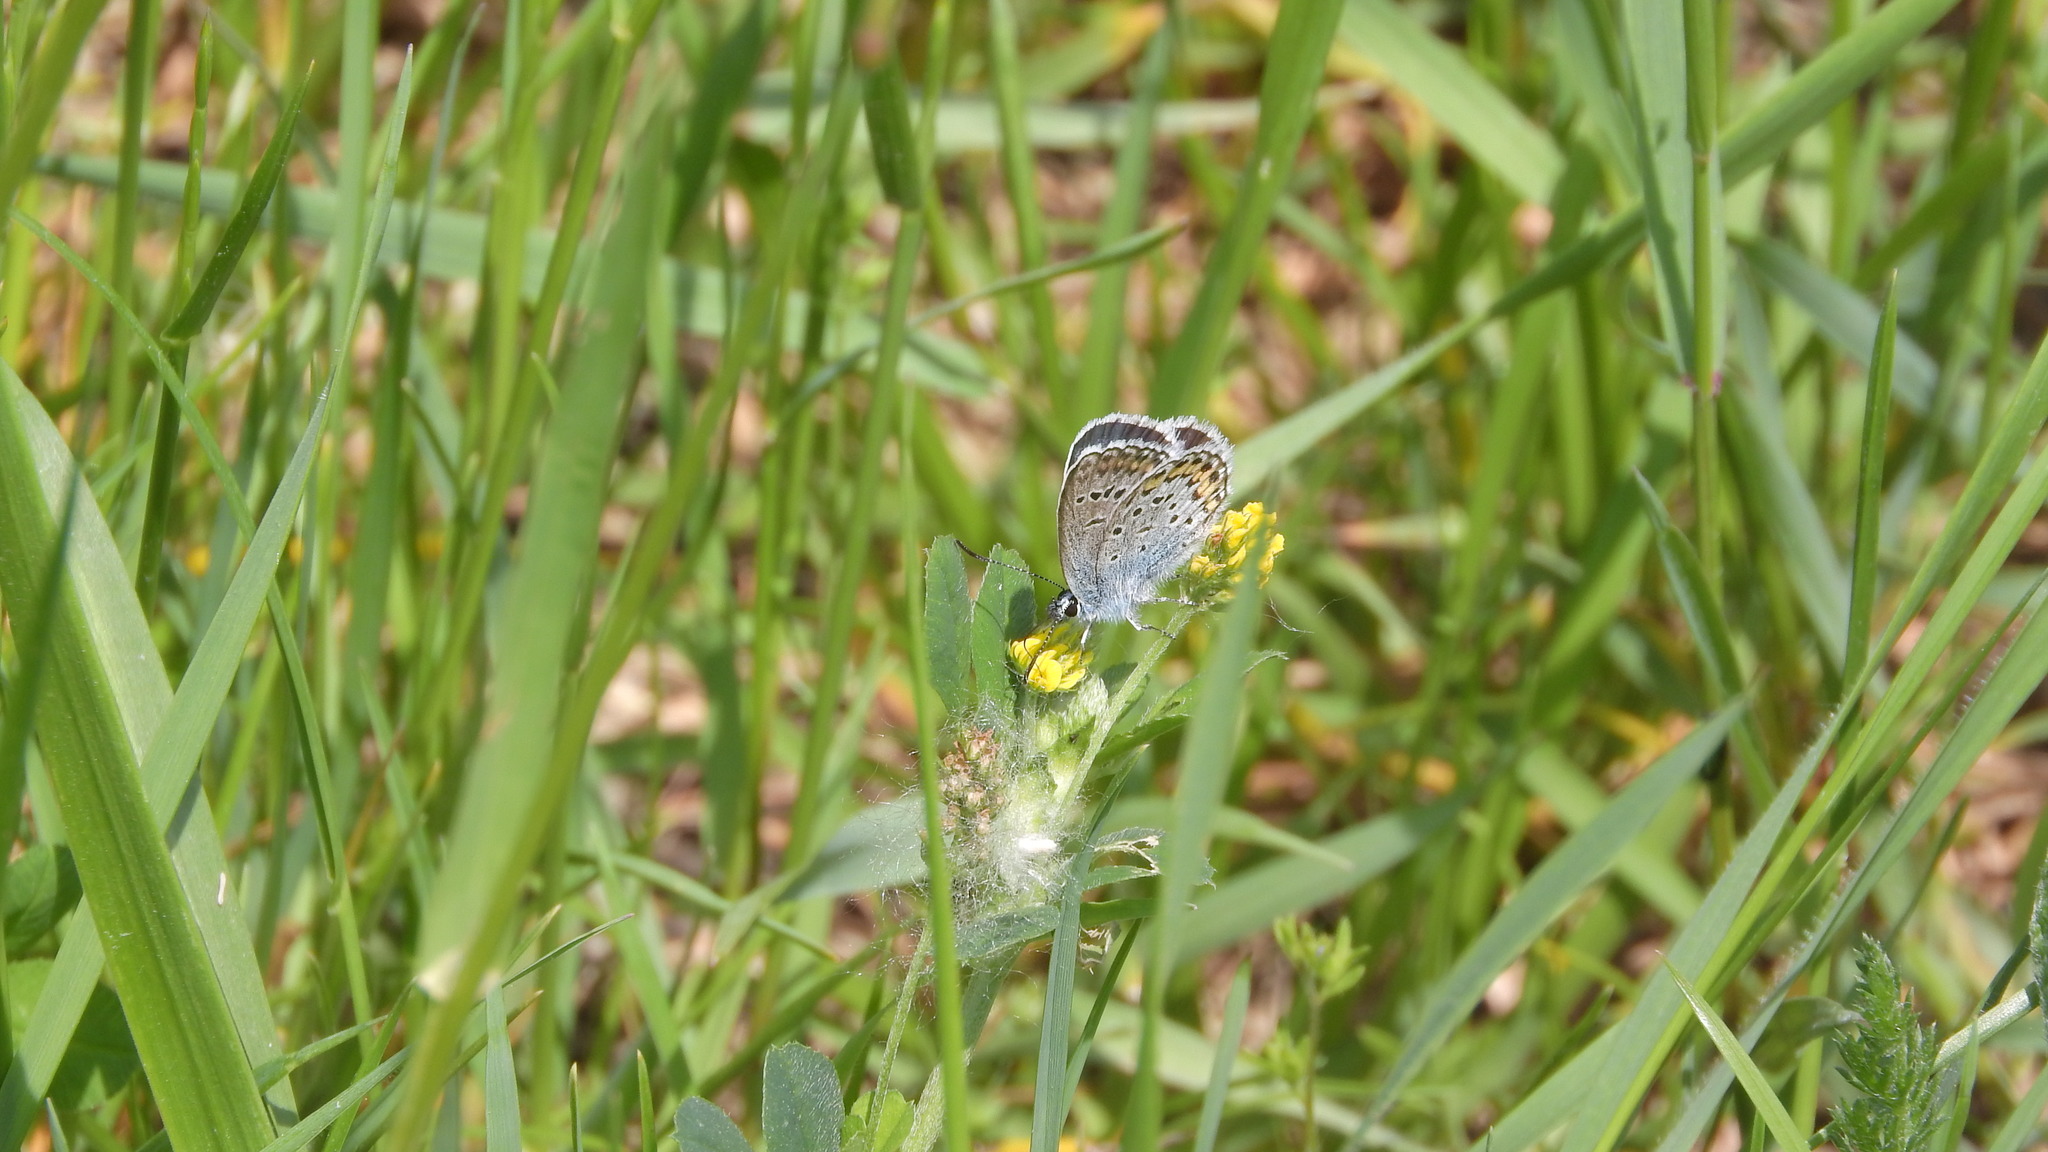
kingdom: Animalia
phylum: Arthropoda
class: Insecta
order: Lepidoptera
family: Lycaenidae
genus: Plebejus
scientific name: Plebejus argus
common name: Silver-studded blue
